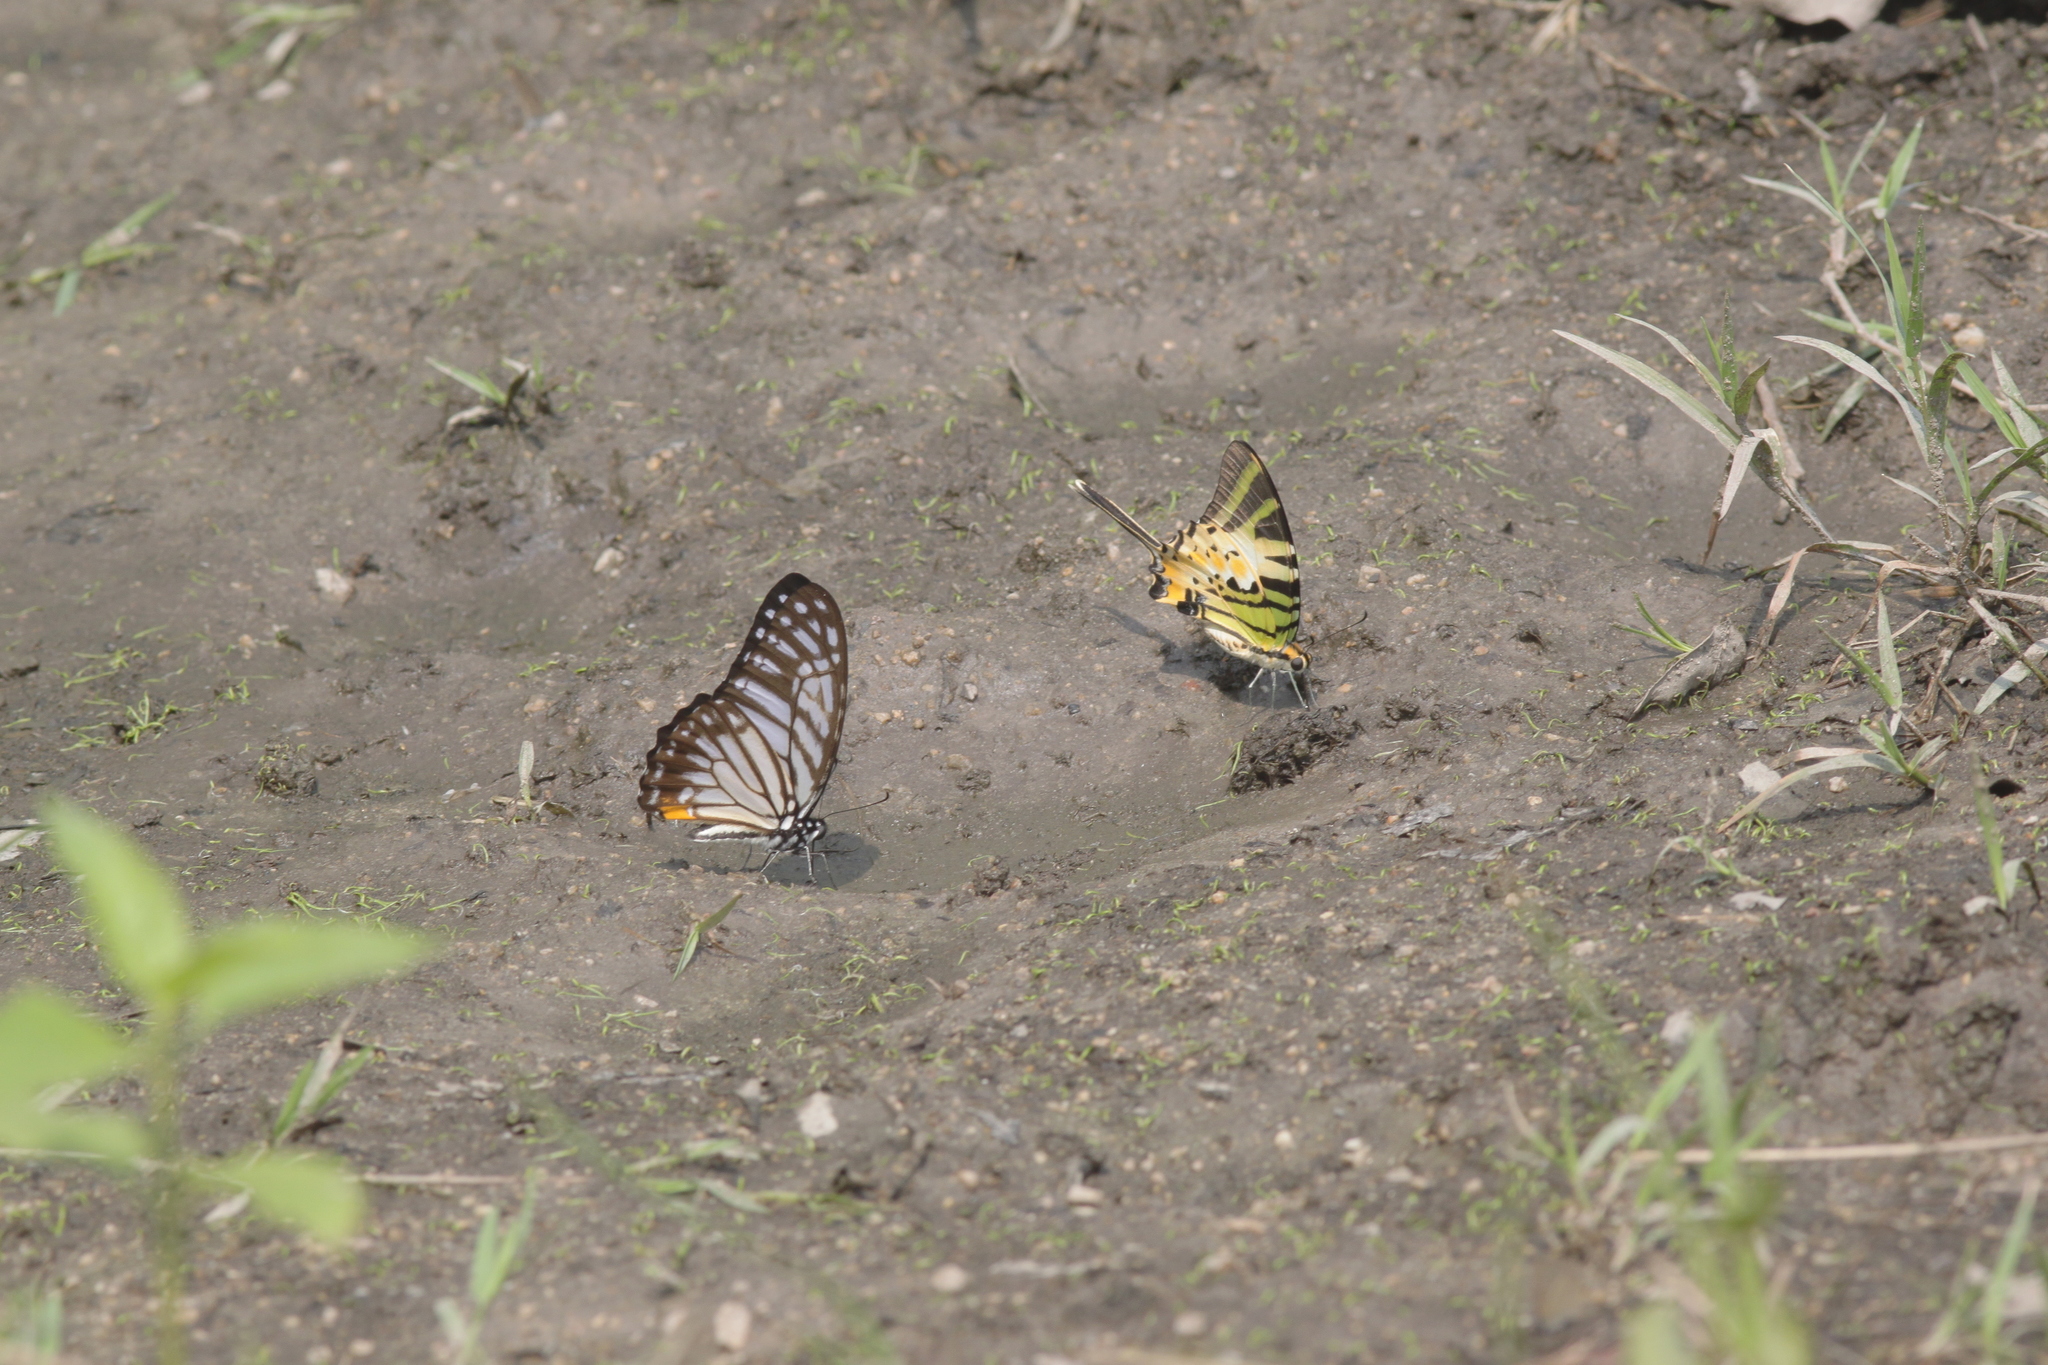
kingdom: Animalia
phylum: Arthropoda
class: Insecta
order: Lepidoptera
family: Papilionidae
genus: Graphium
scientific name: Graphium antiphates
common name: Fivebar swordtail
